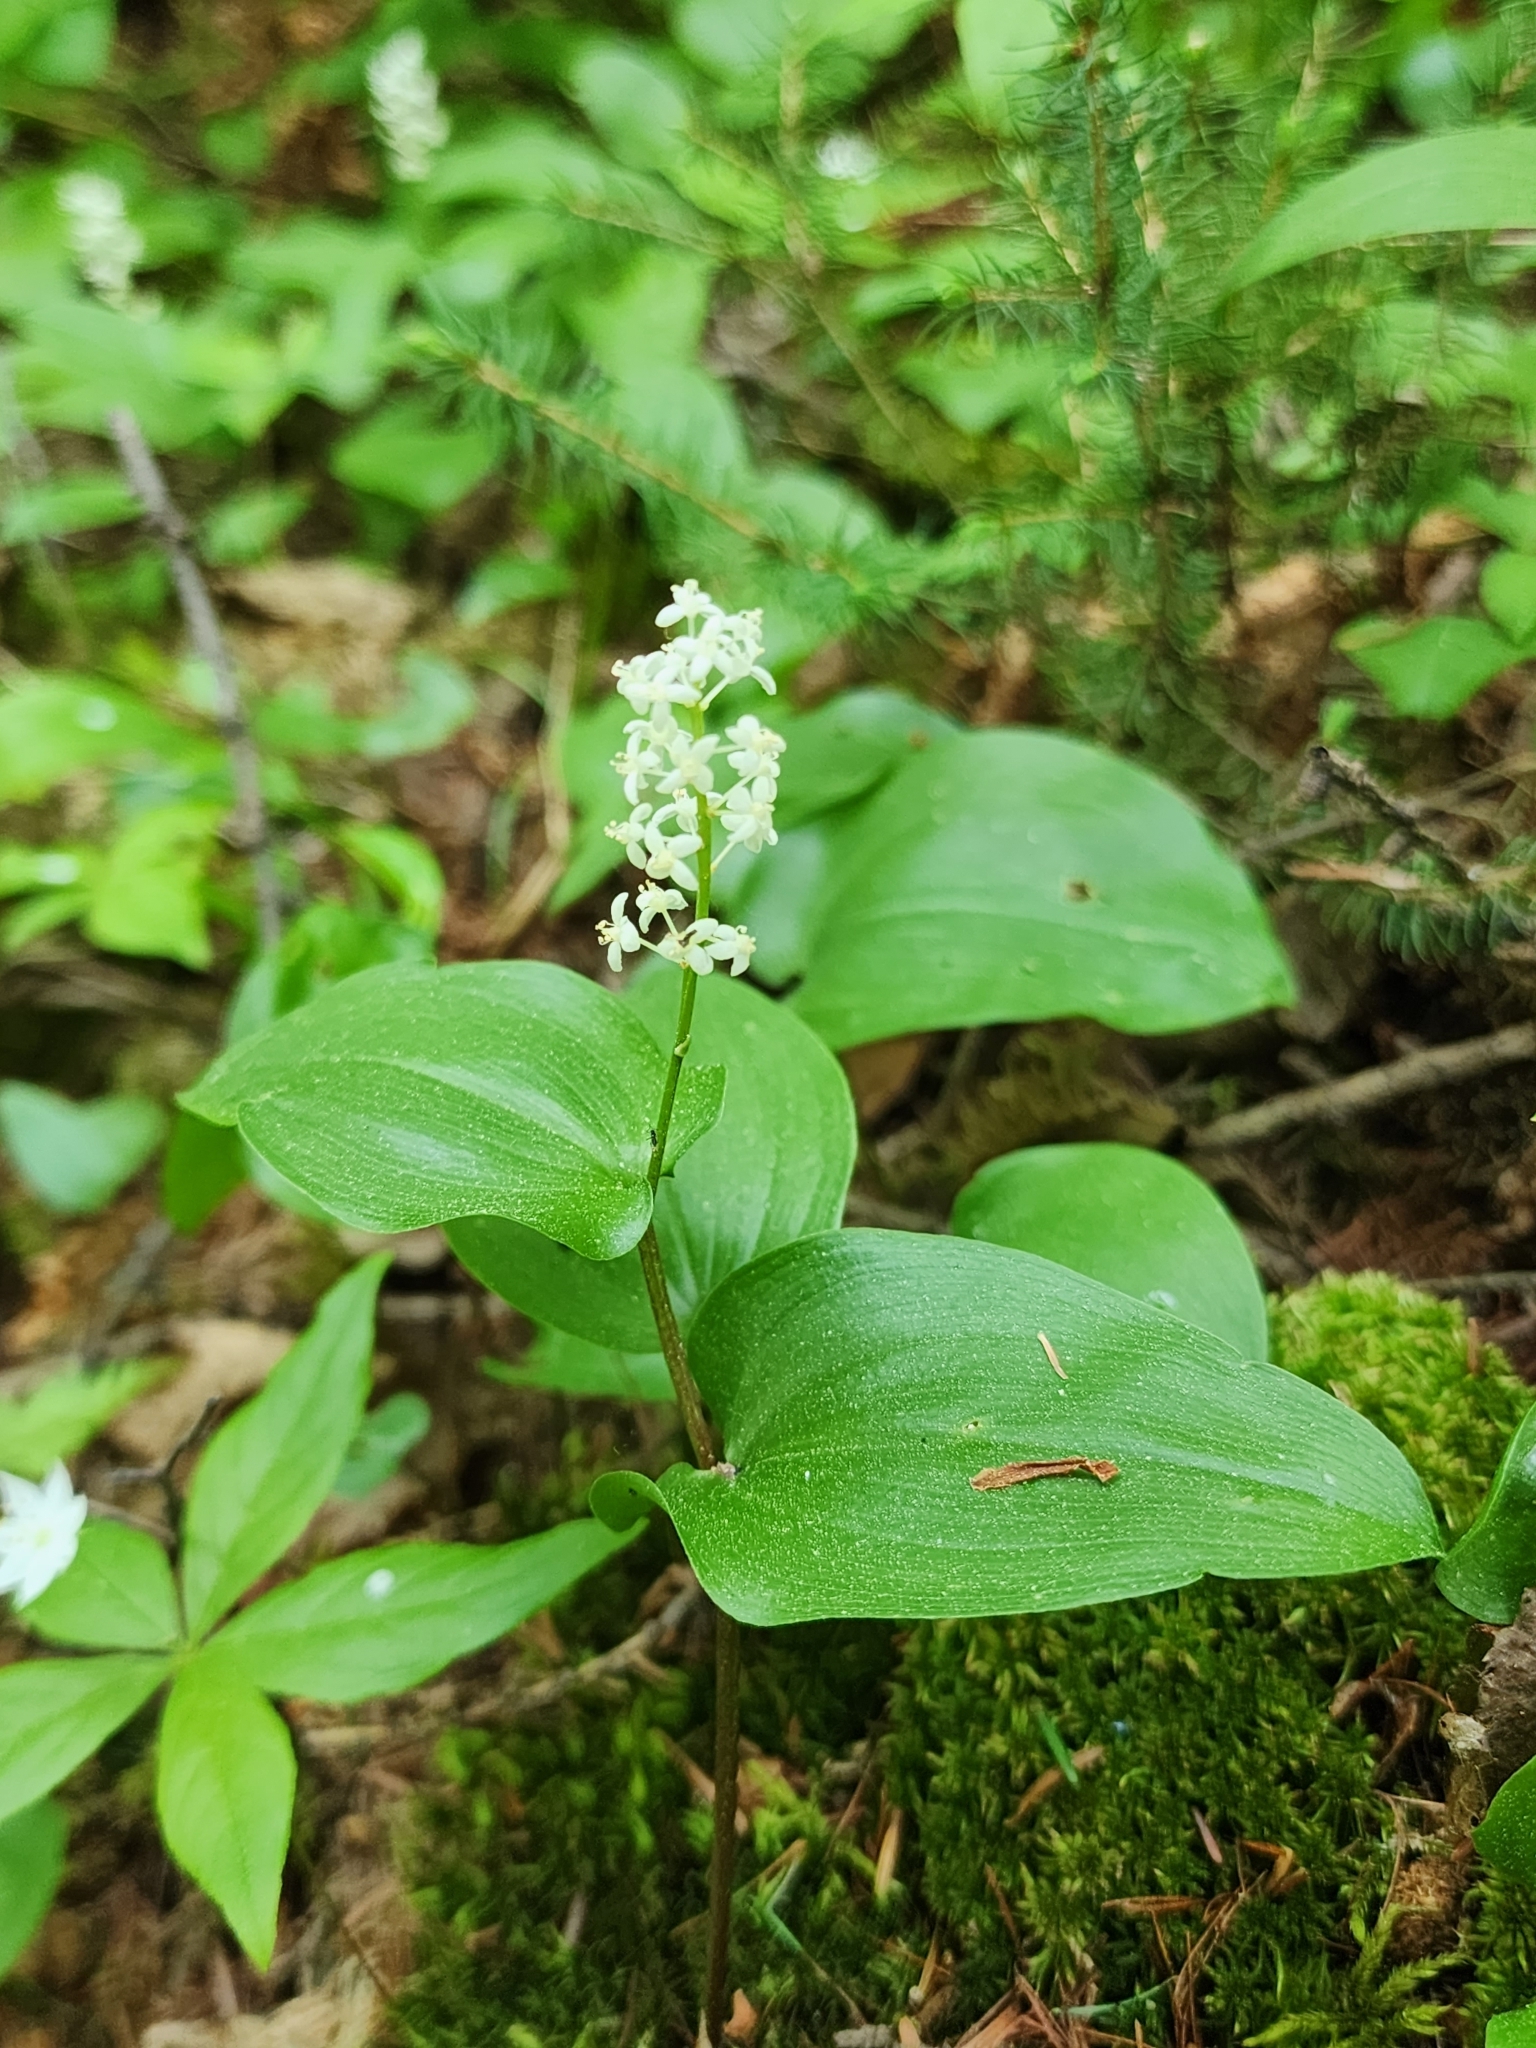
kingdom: Plantae
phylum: Tracheophyta
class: Liliopsida
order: Asparagales
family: Asparagaceae
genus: Maianthemum
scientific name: Maianthemum canadense
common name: False lily-of-the-valley
